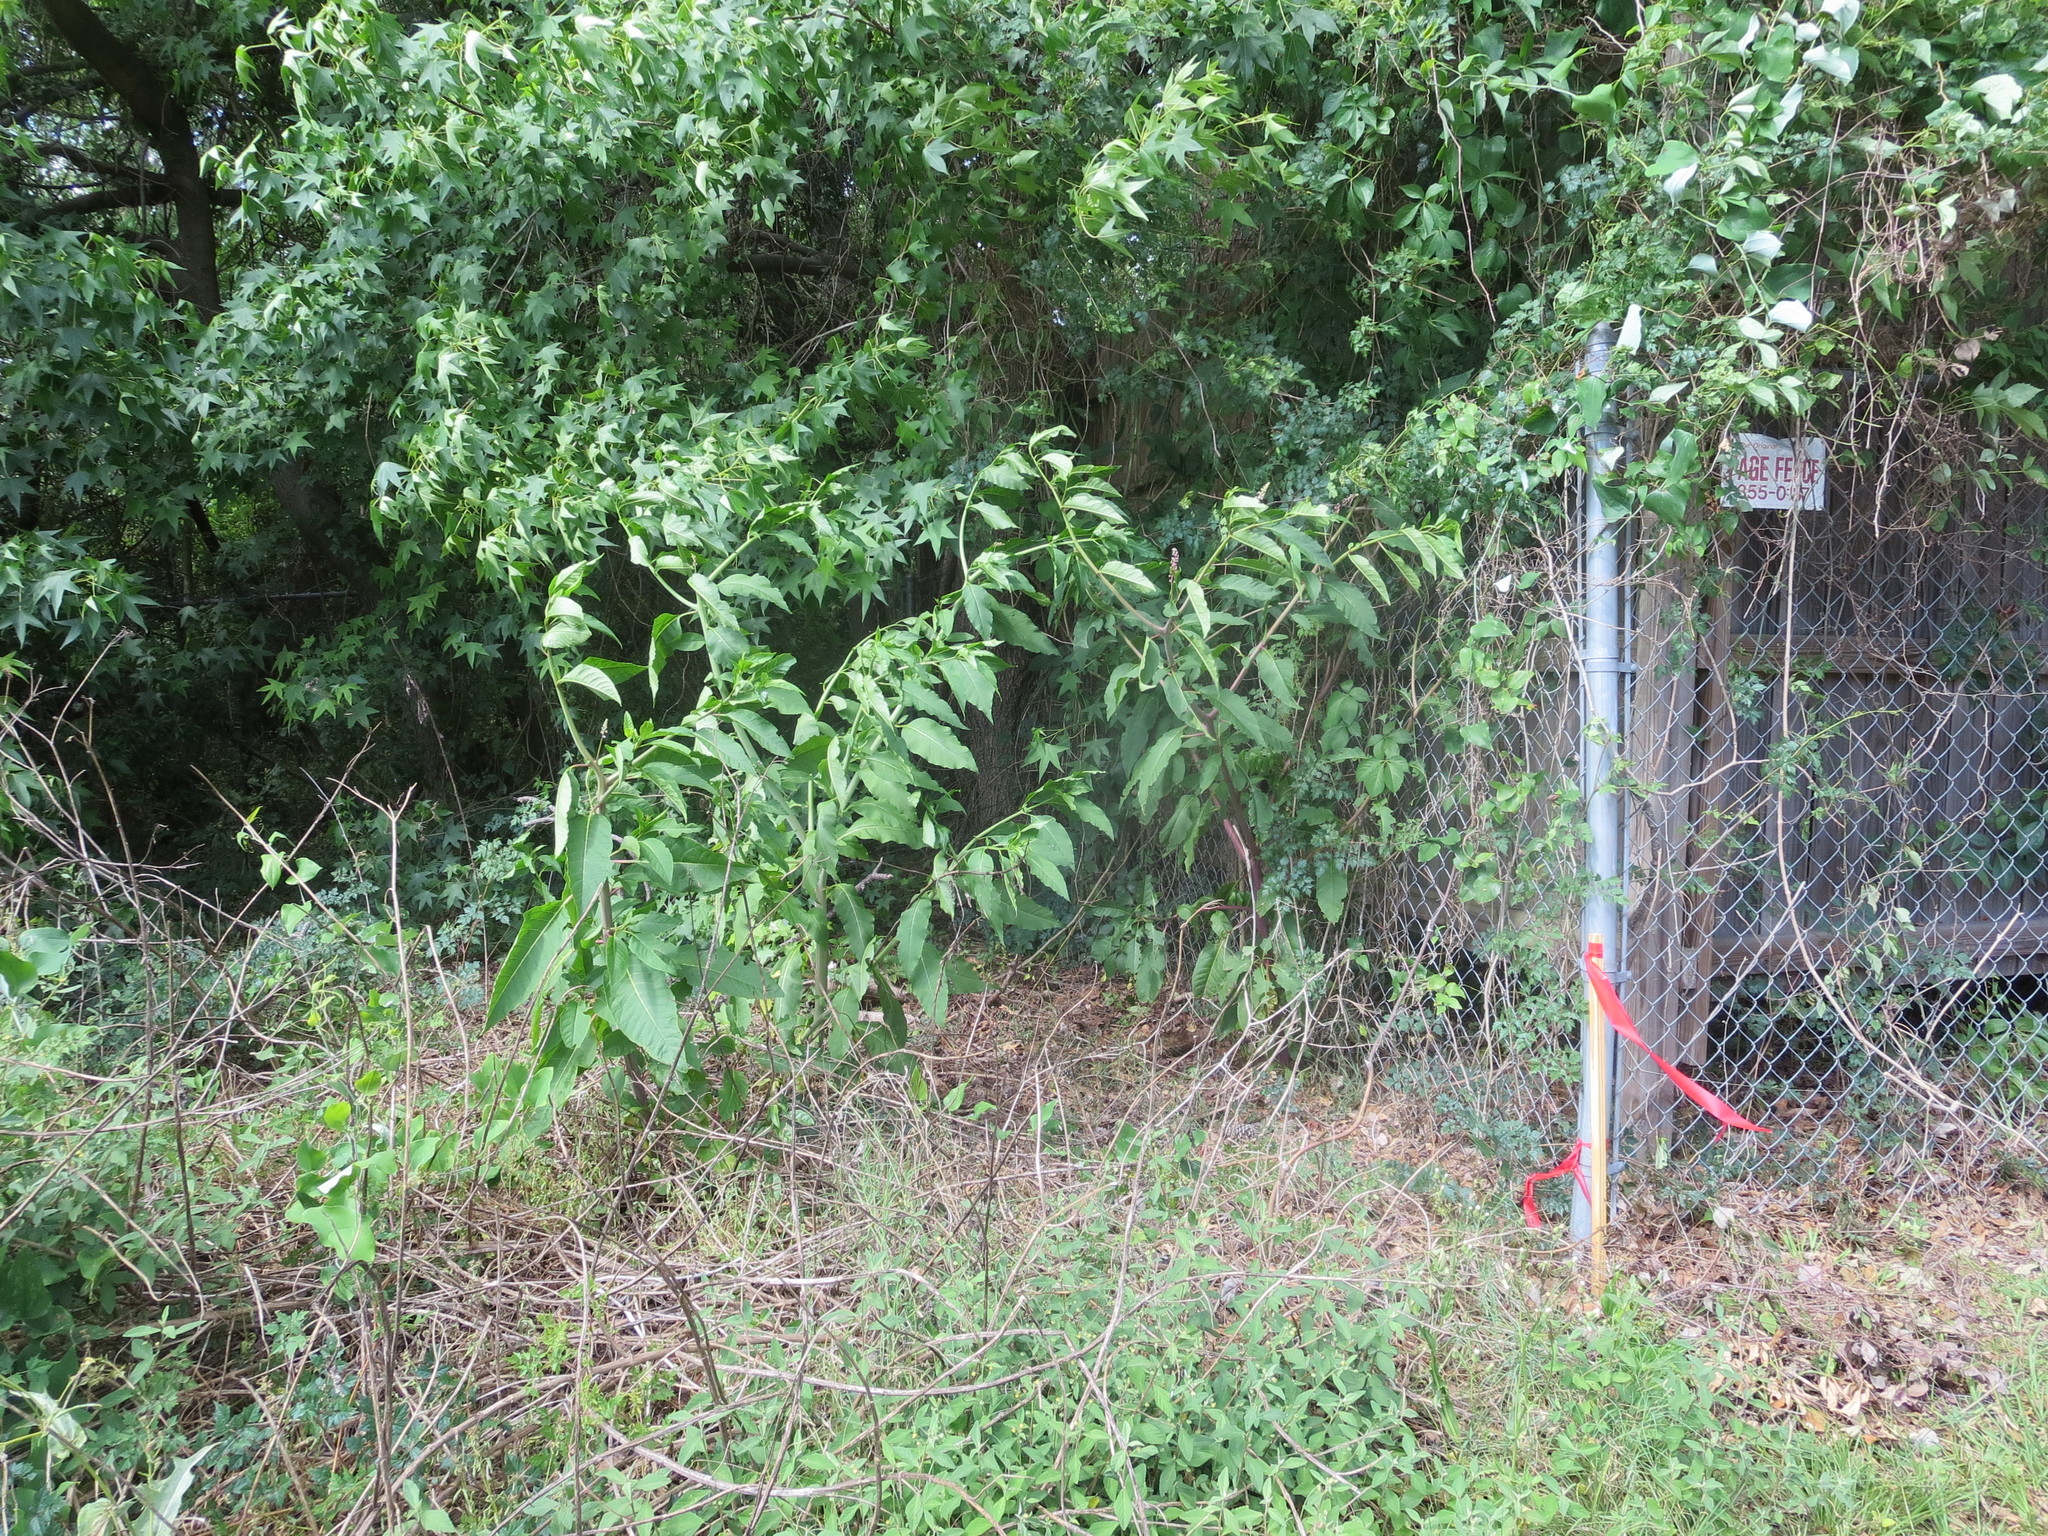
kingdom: Plantae
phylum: Tracheophyta
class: Magnoliopsida
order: Caryophyllales
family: Phytolaccaceae
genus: Phytolacca
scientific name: Phytolacca americana
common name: American pokeweed
